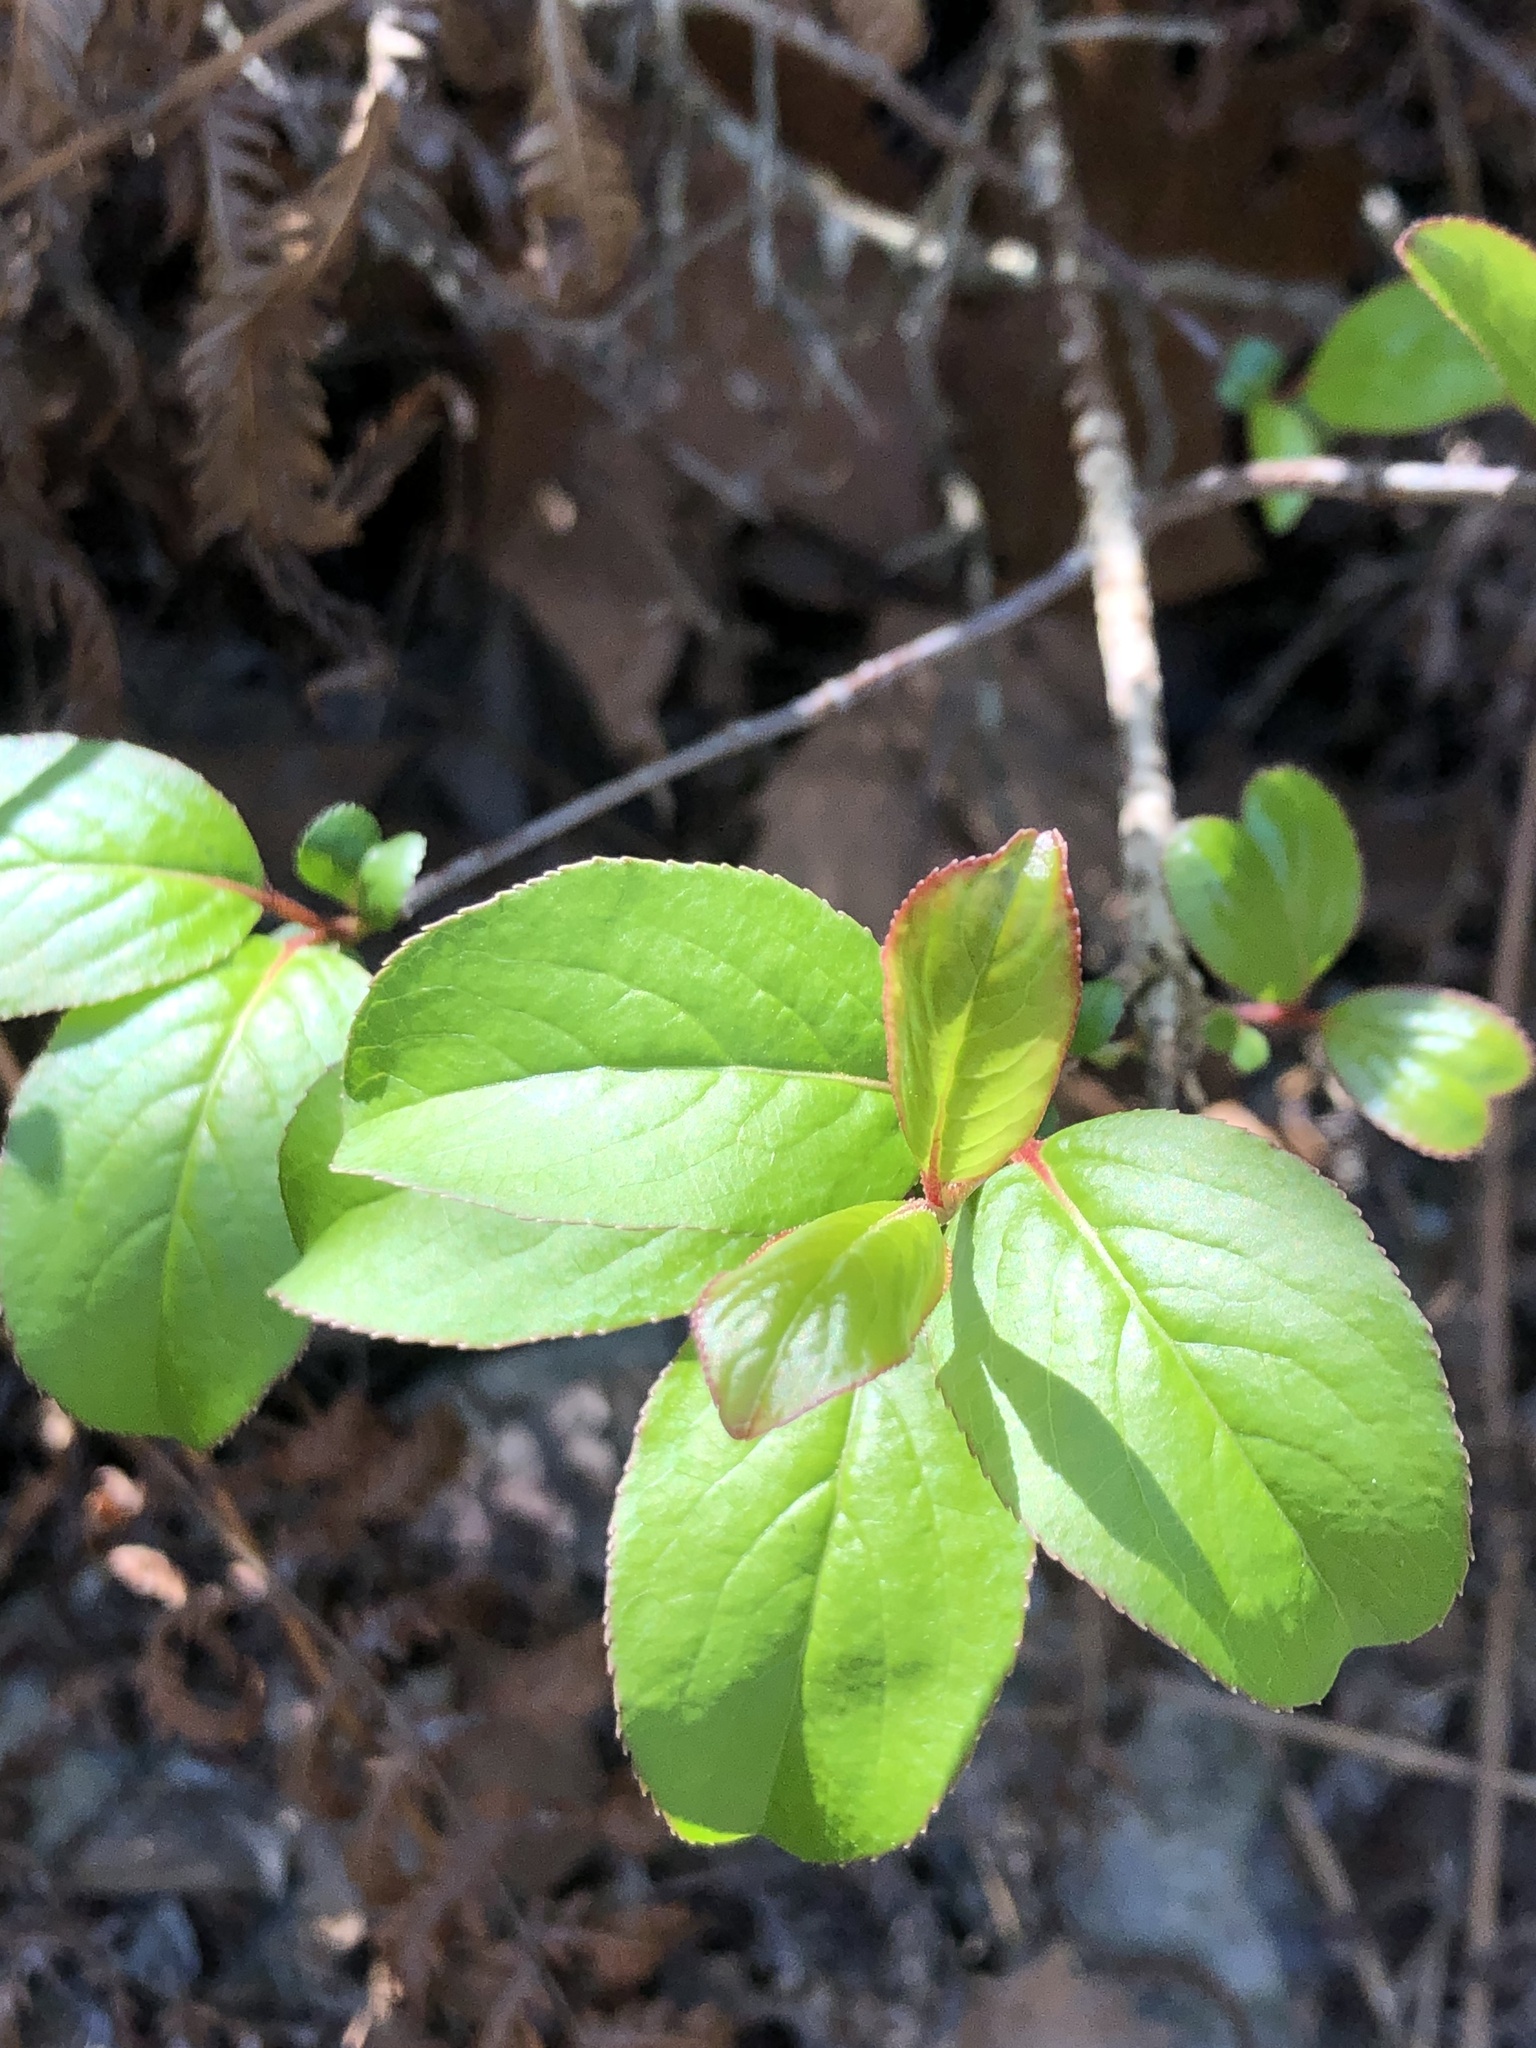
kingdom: Plantae
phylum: Tracheophyta
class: Magnoliopsida
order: Dipsacales
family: Viburnaceae
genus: Viburnum
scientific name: Viburnum rufidulum
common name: Blue haw
